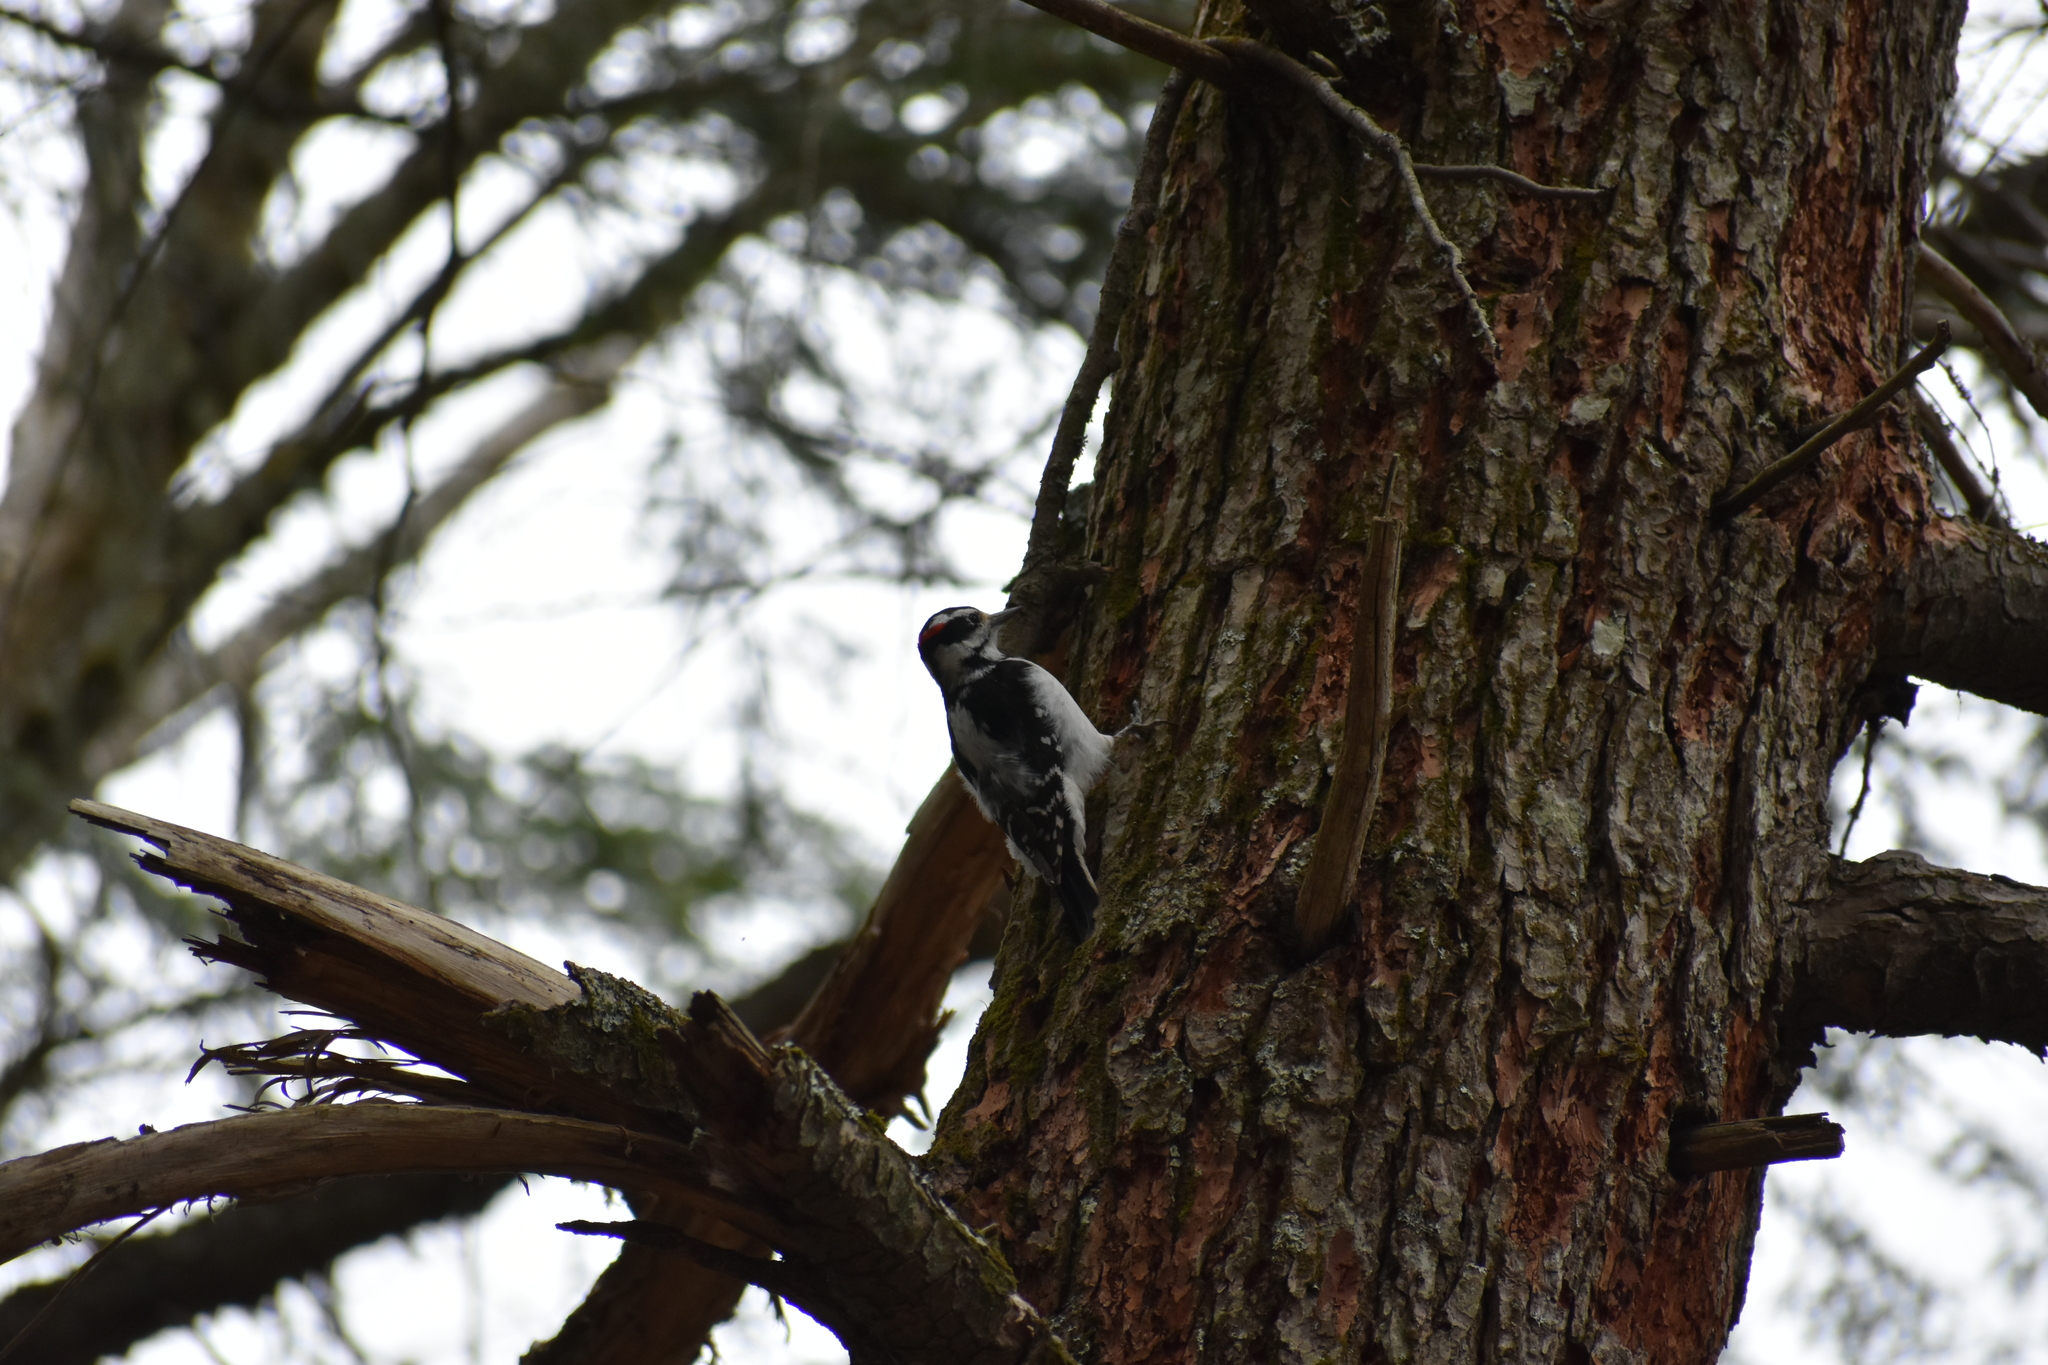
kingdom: Animalia
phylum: Chordata
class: Aves
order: Piciformes
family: Picidae
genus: Leuconotopicus
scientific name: Leuconotopicus villosus
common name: Hairy woodpecker
